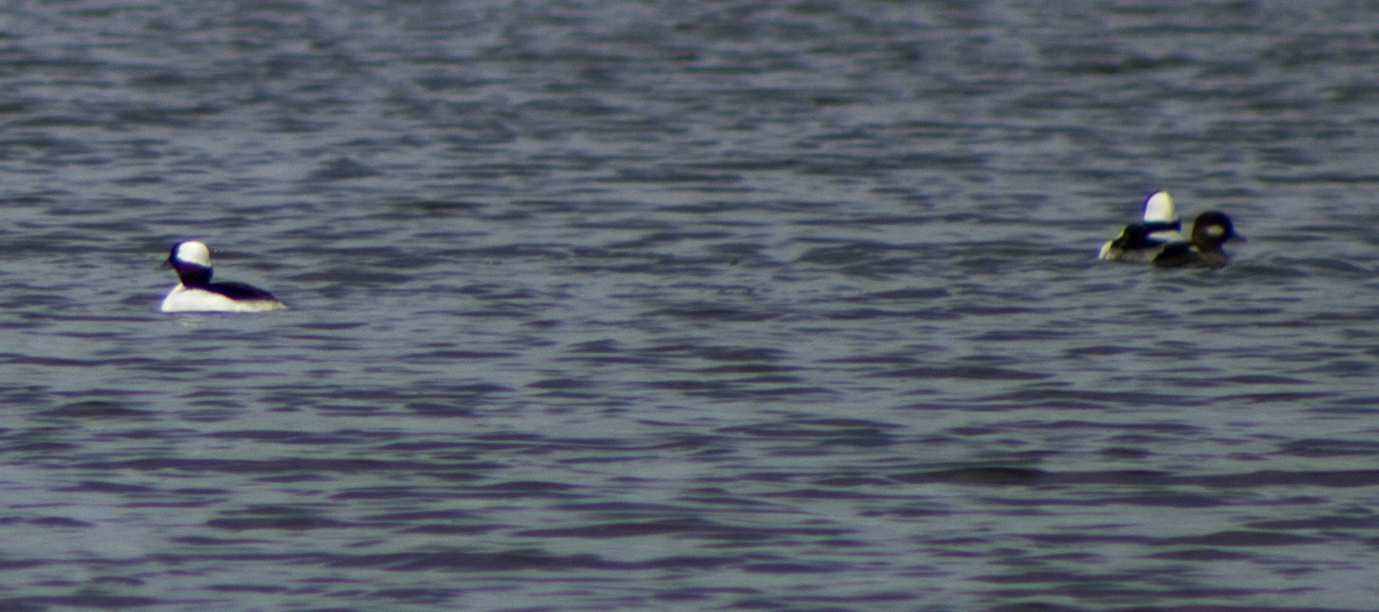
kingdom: Animalia
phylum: Chordata
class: Aves
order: Anseriformes
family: Anatidae
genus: Bucephala
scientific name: Bucephala albeola
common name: Bufflehead
